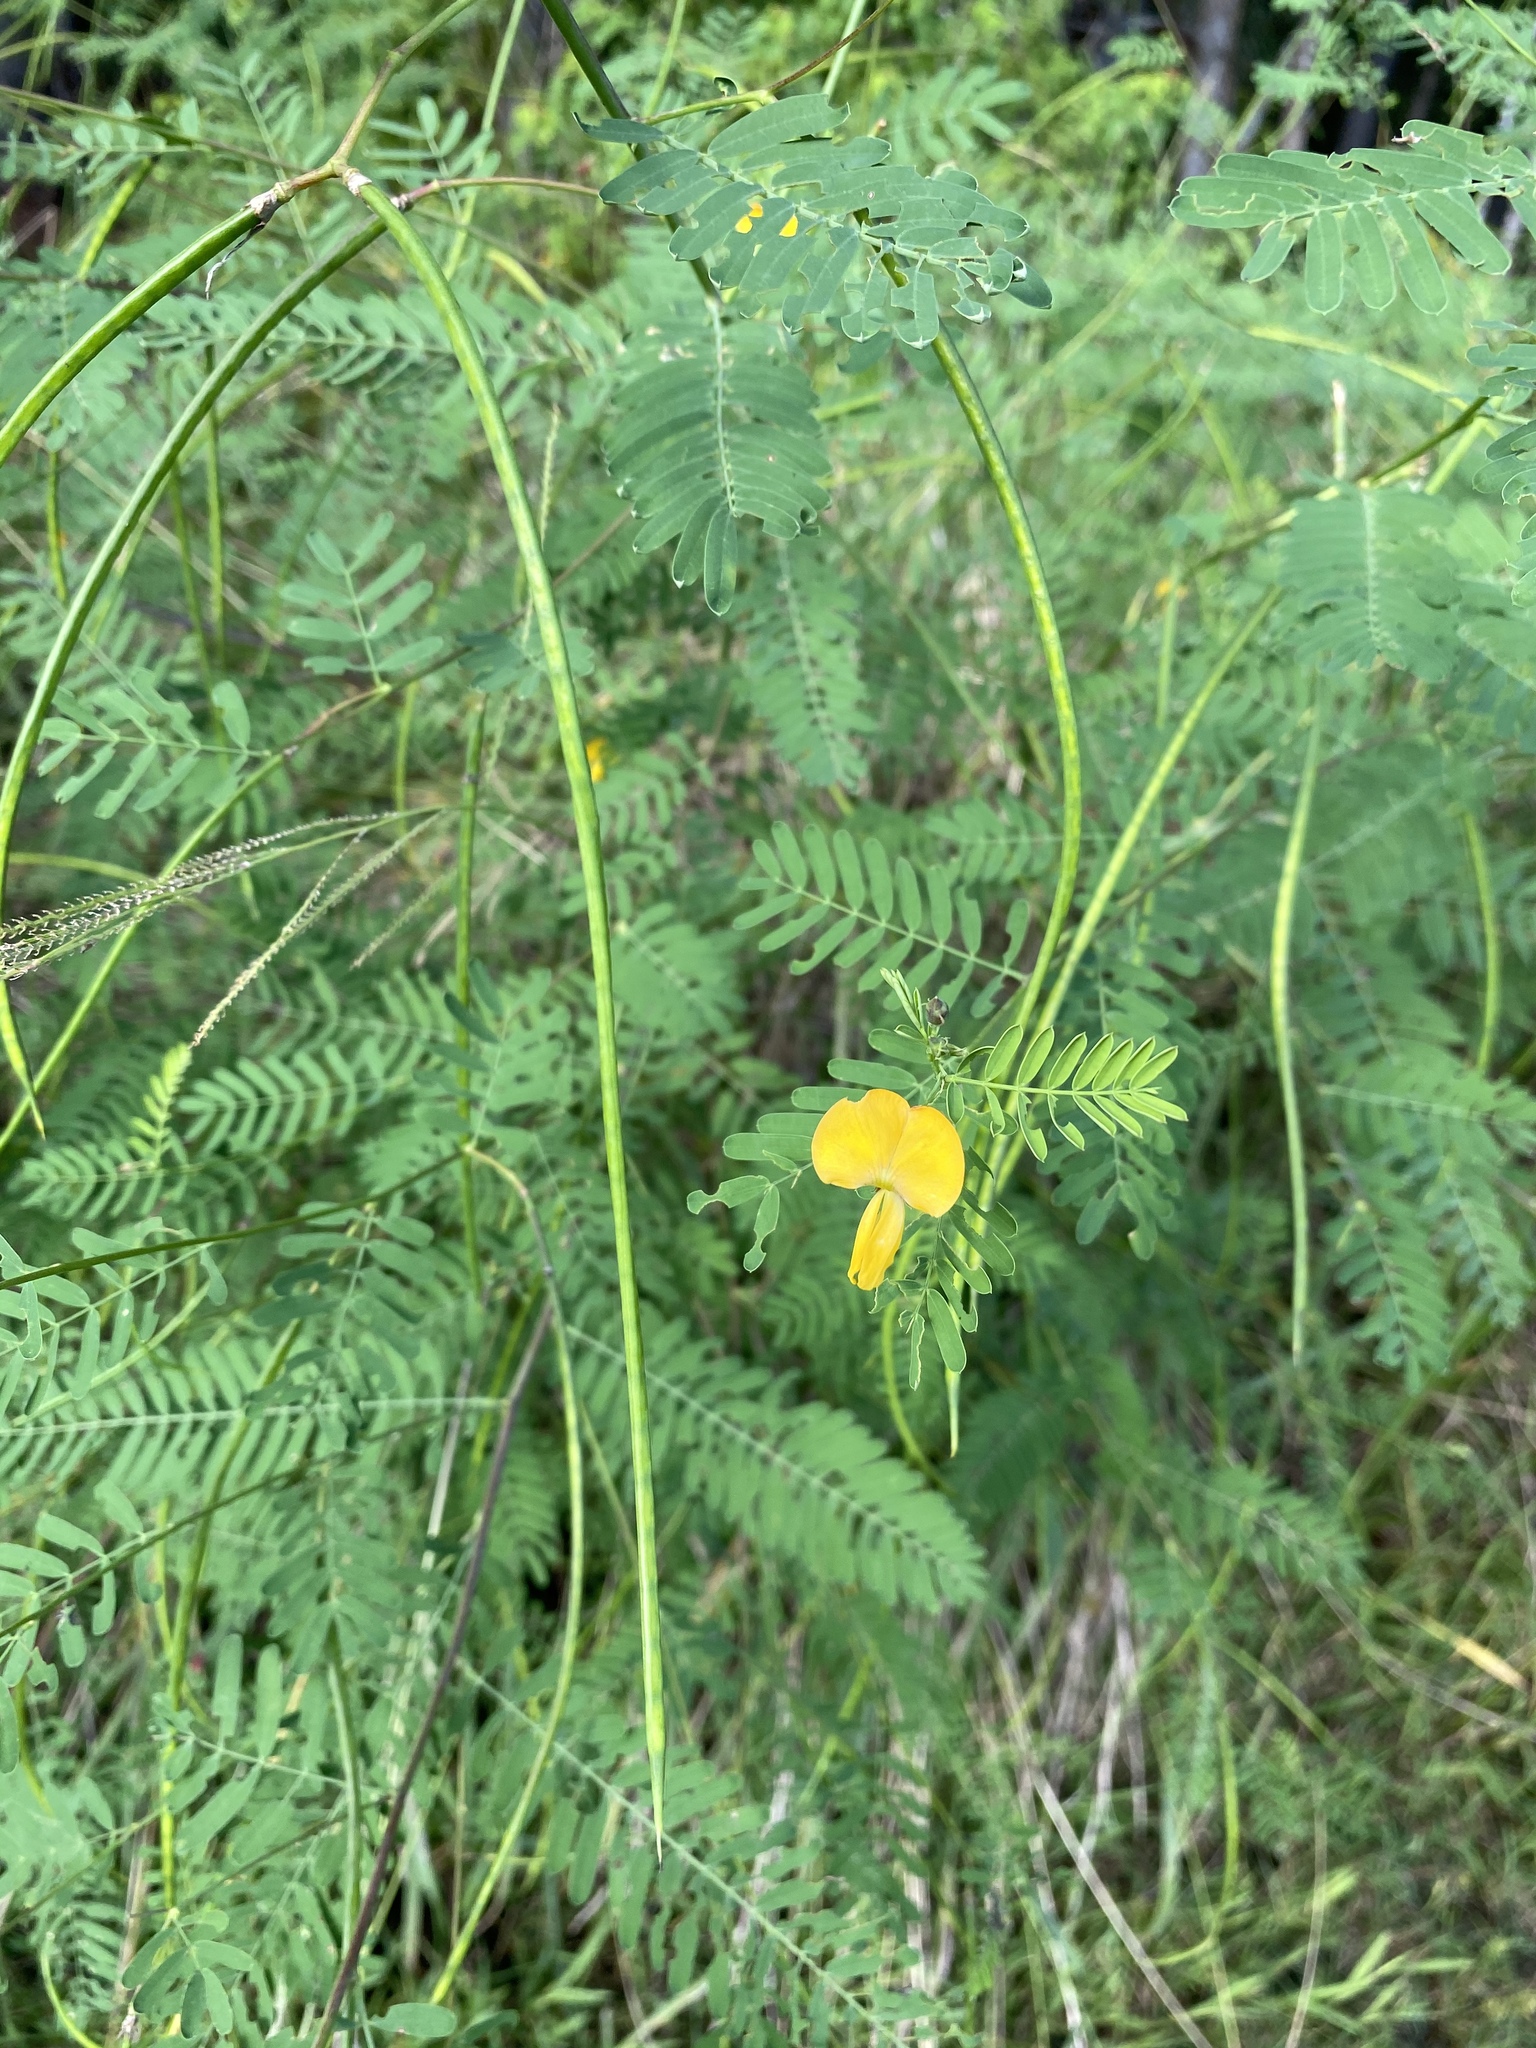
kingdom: Plantae
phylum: Tracheophyta
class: Magnoliopsida
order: Fabales
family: Fabaceae
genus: Sesbania
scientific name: Sesbania herbacea
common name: Bigpod sesbania
